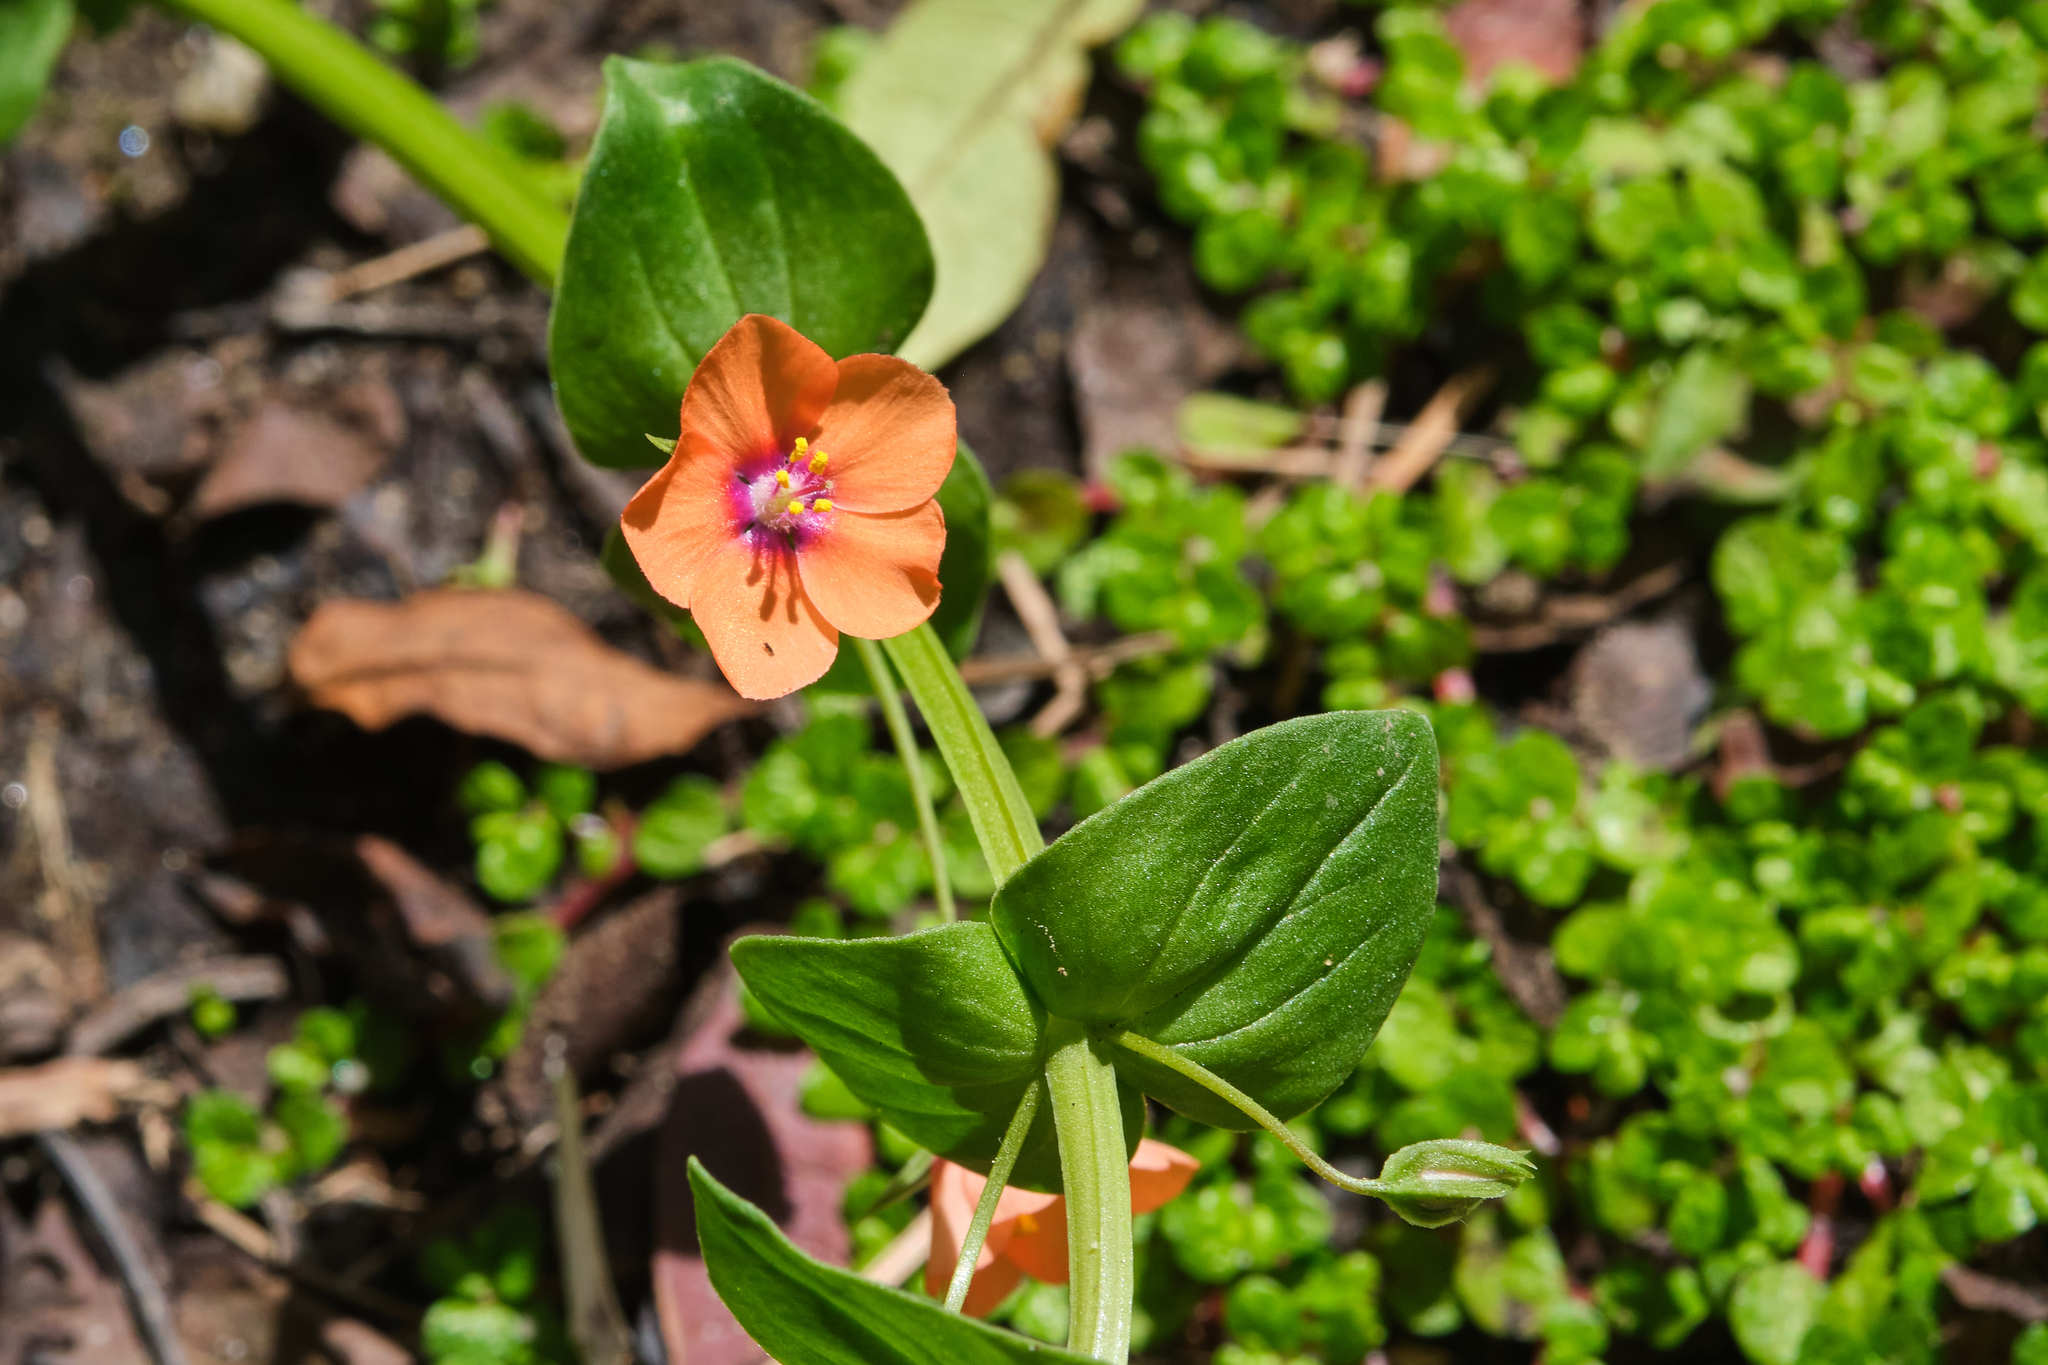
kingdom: Plantae
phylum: Tracheophyta
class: Magnoliopsida
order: Ericales
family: Primulaceae
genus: Lysimachia
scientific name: Lysimachia arvensis
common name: Scarlet pimpernel
